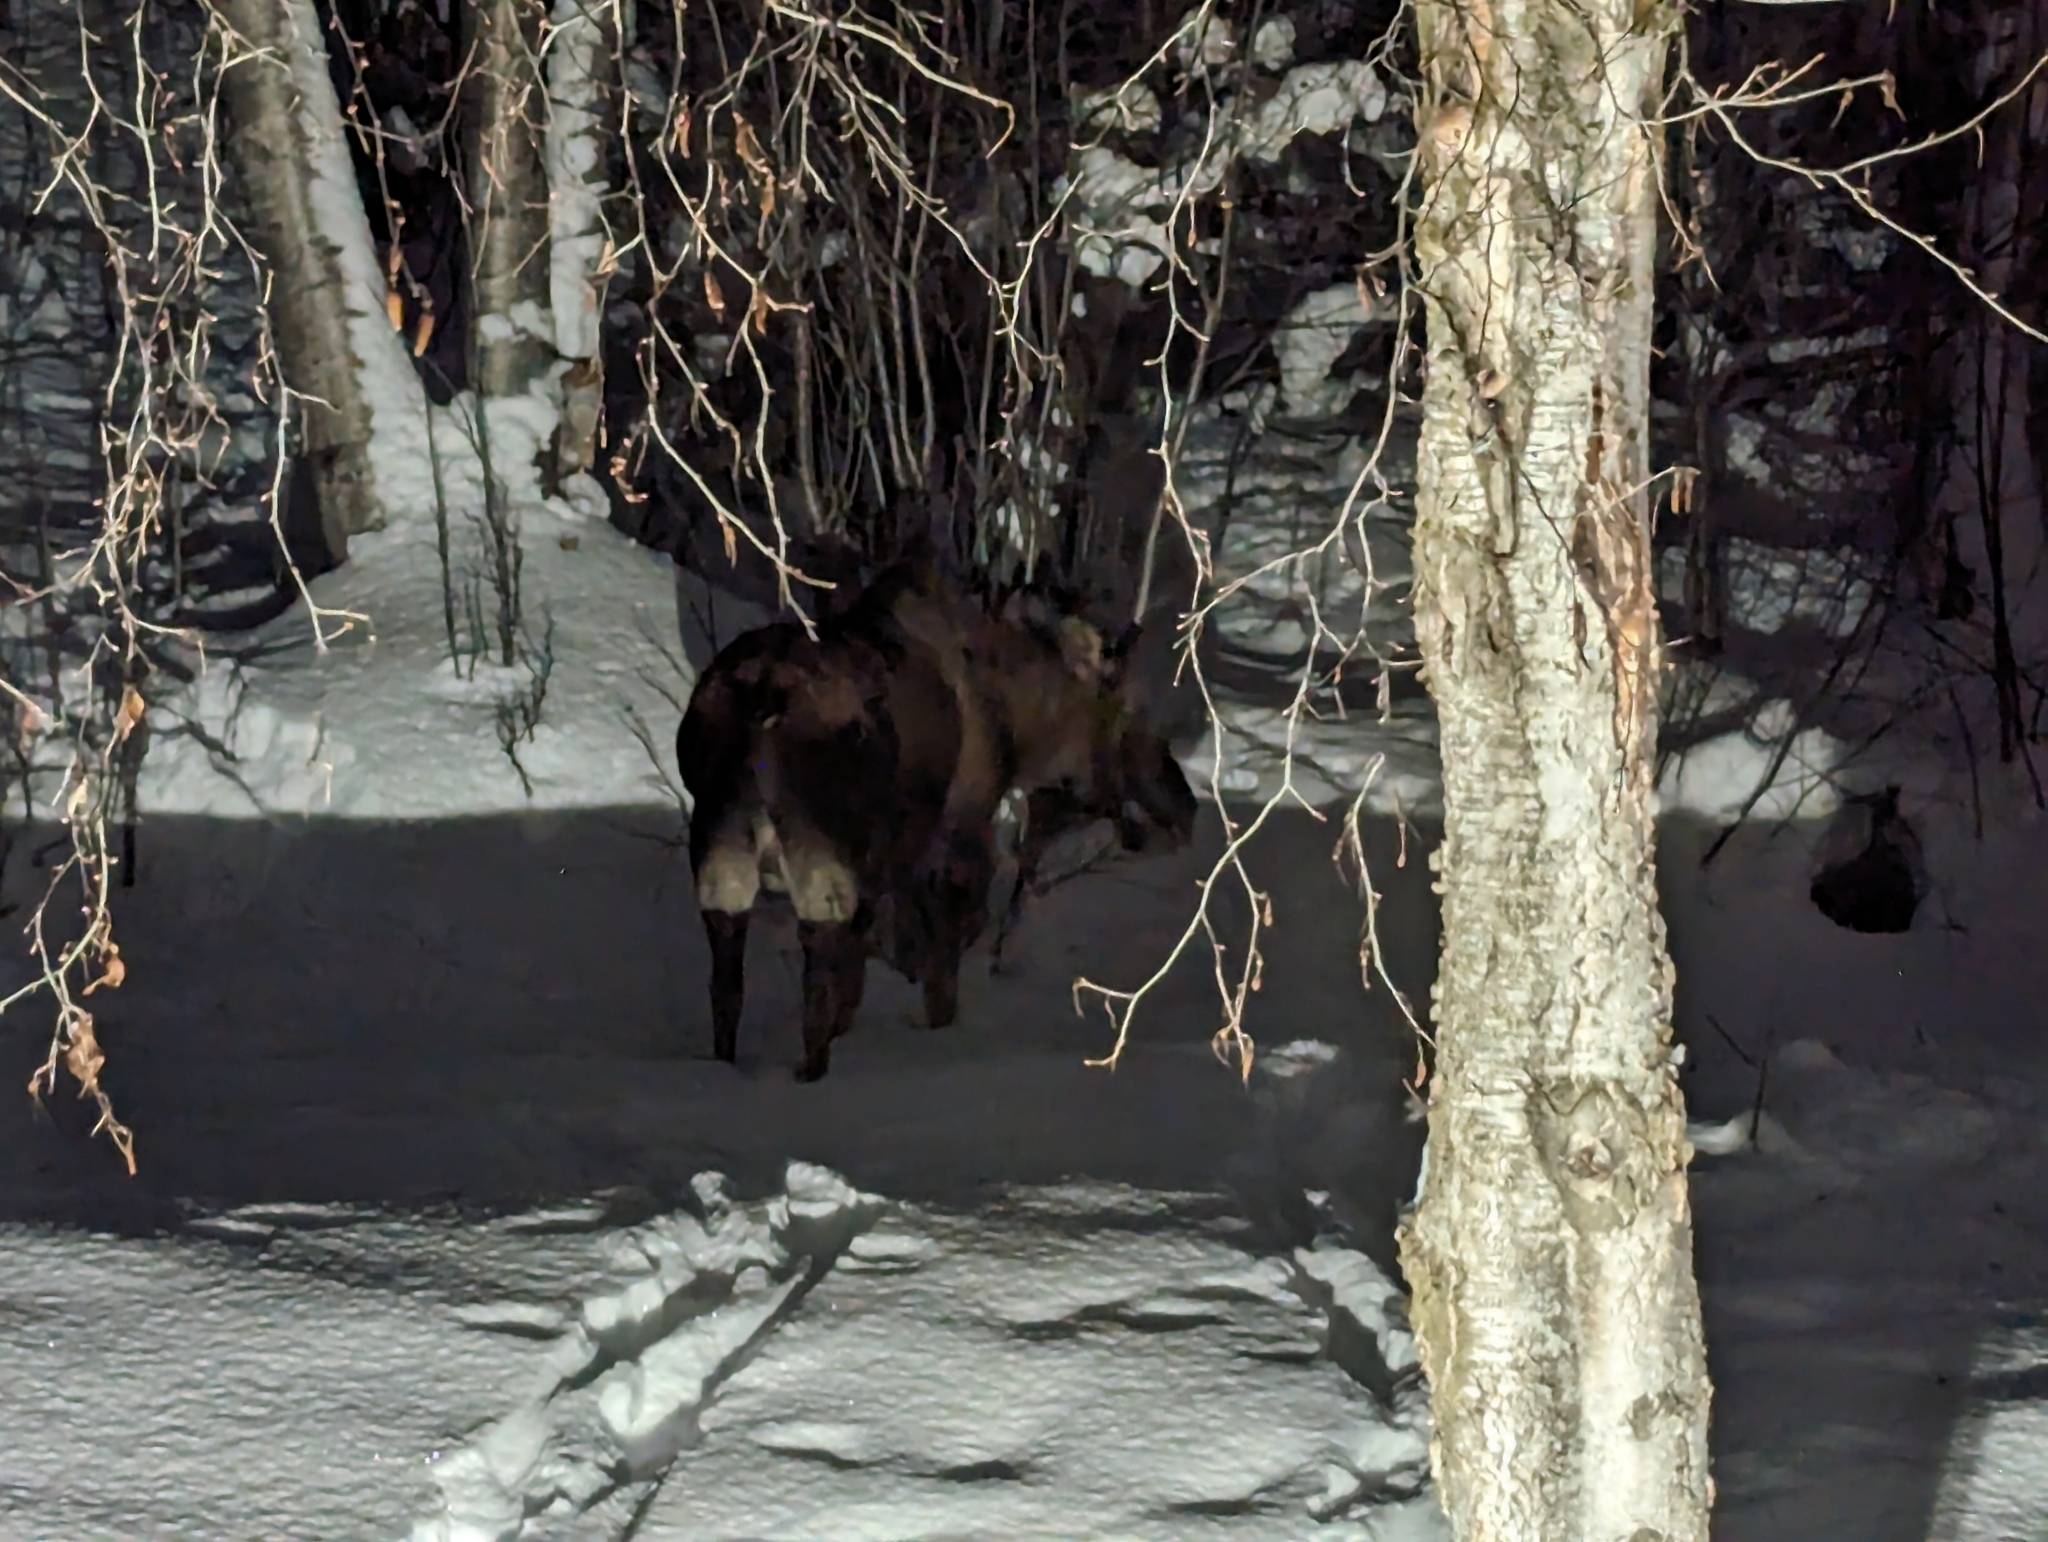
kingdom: Animalia
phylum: Chordata
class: Mammalia
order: Artiodactyla
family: Cervidae
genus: Alces
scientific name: Alces alces
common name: Moose
